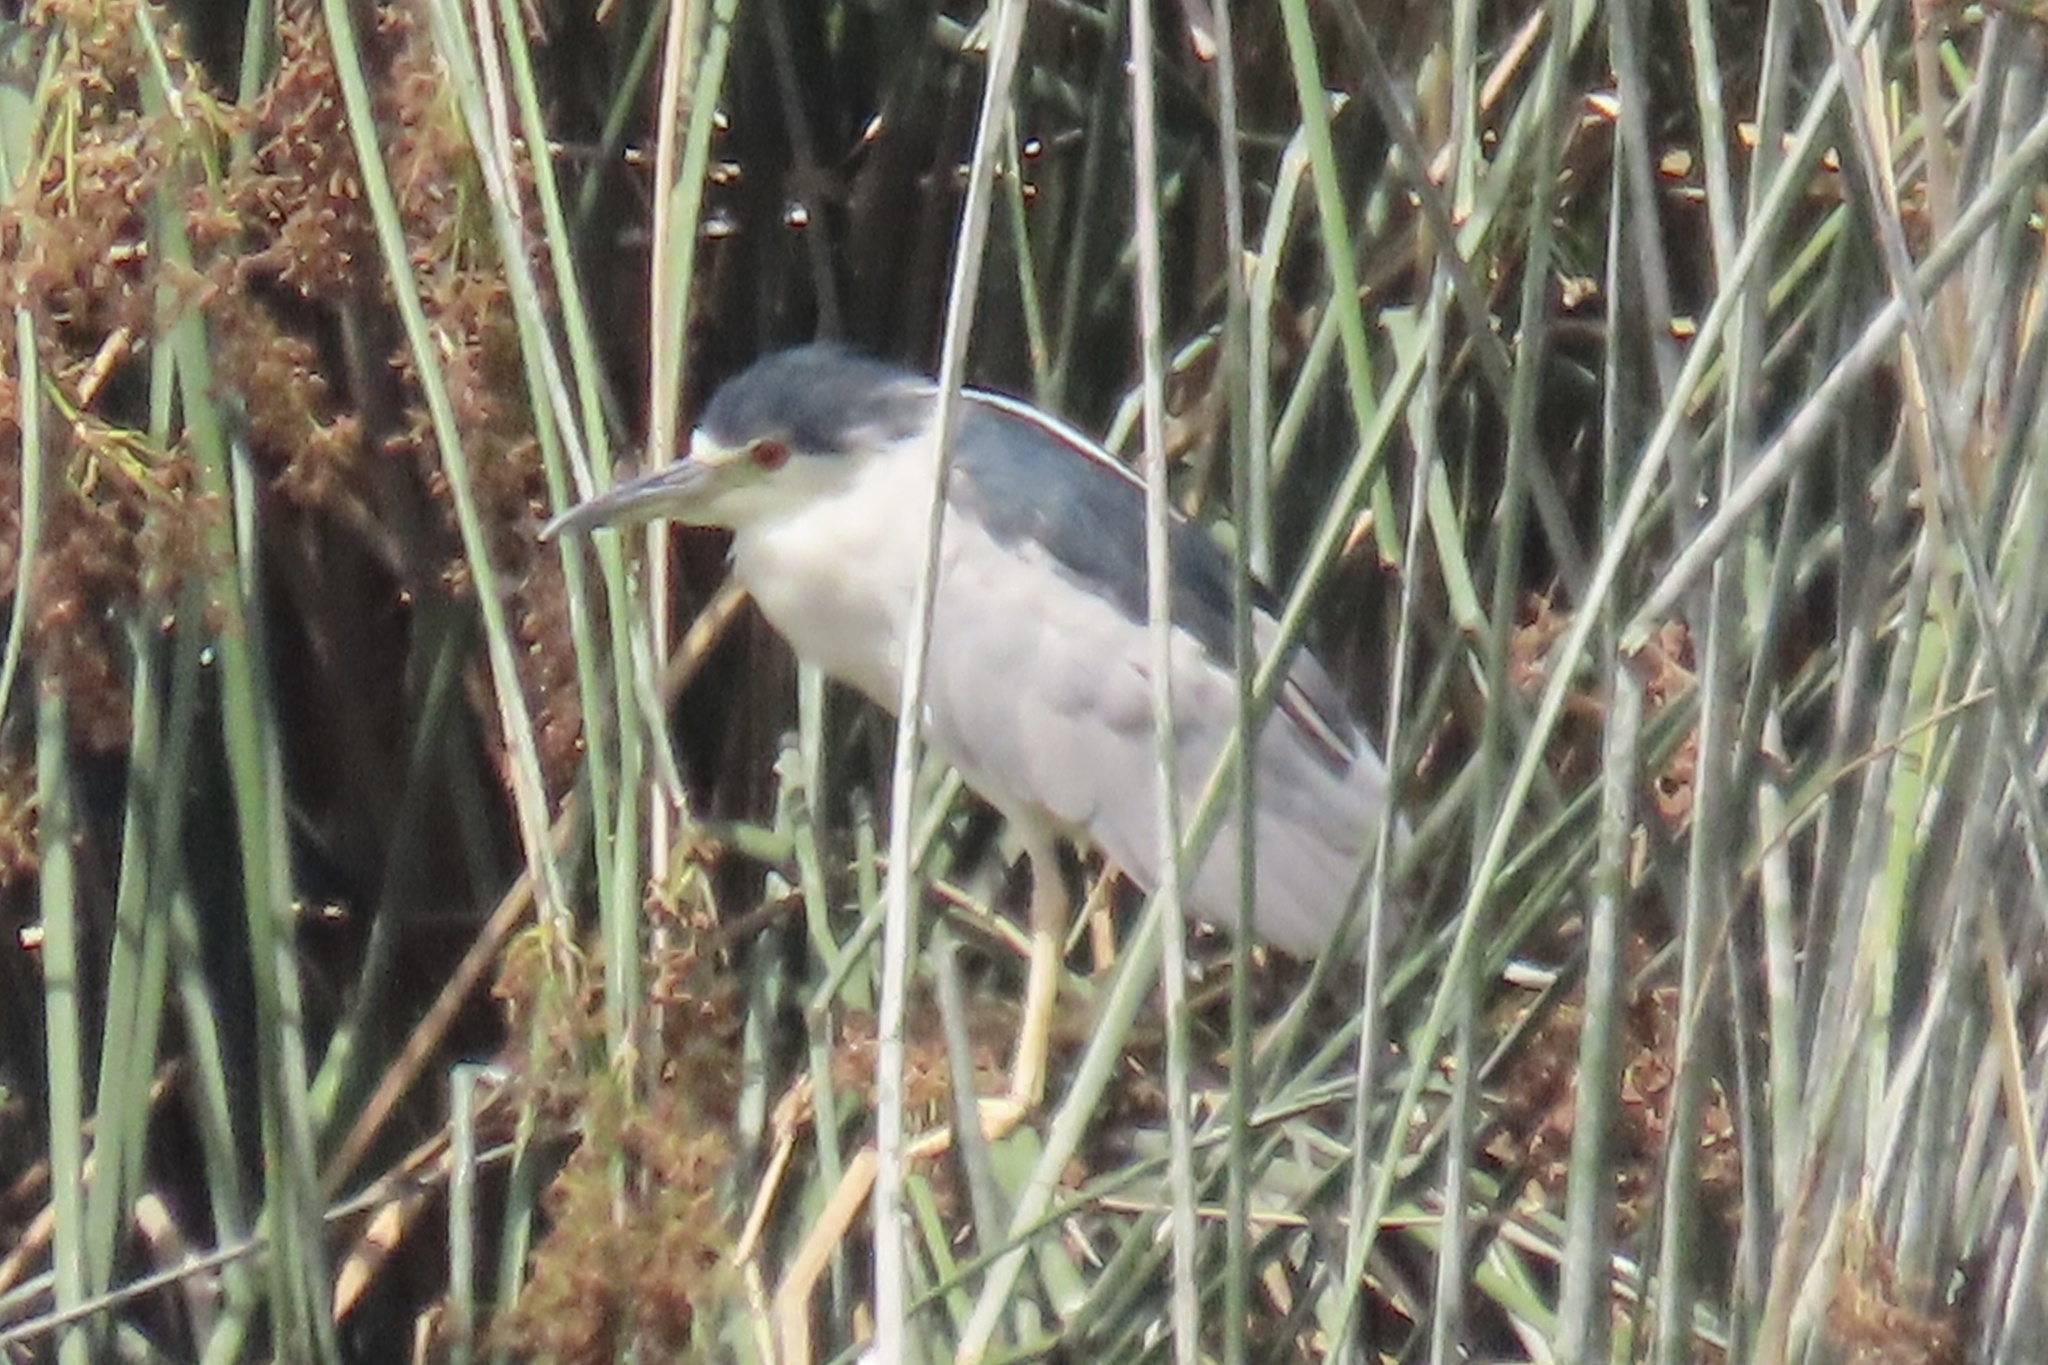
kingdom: Animalia
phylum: Chordata
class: Aves
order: Pelecaniformes
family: Ardeidae
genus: Nycticorax
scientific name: Nycticorax nycticorax
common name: Black-crowned night heron
